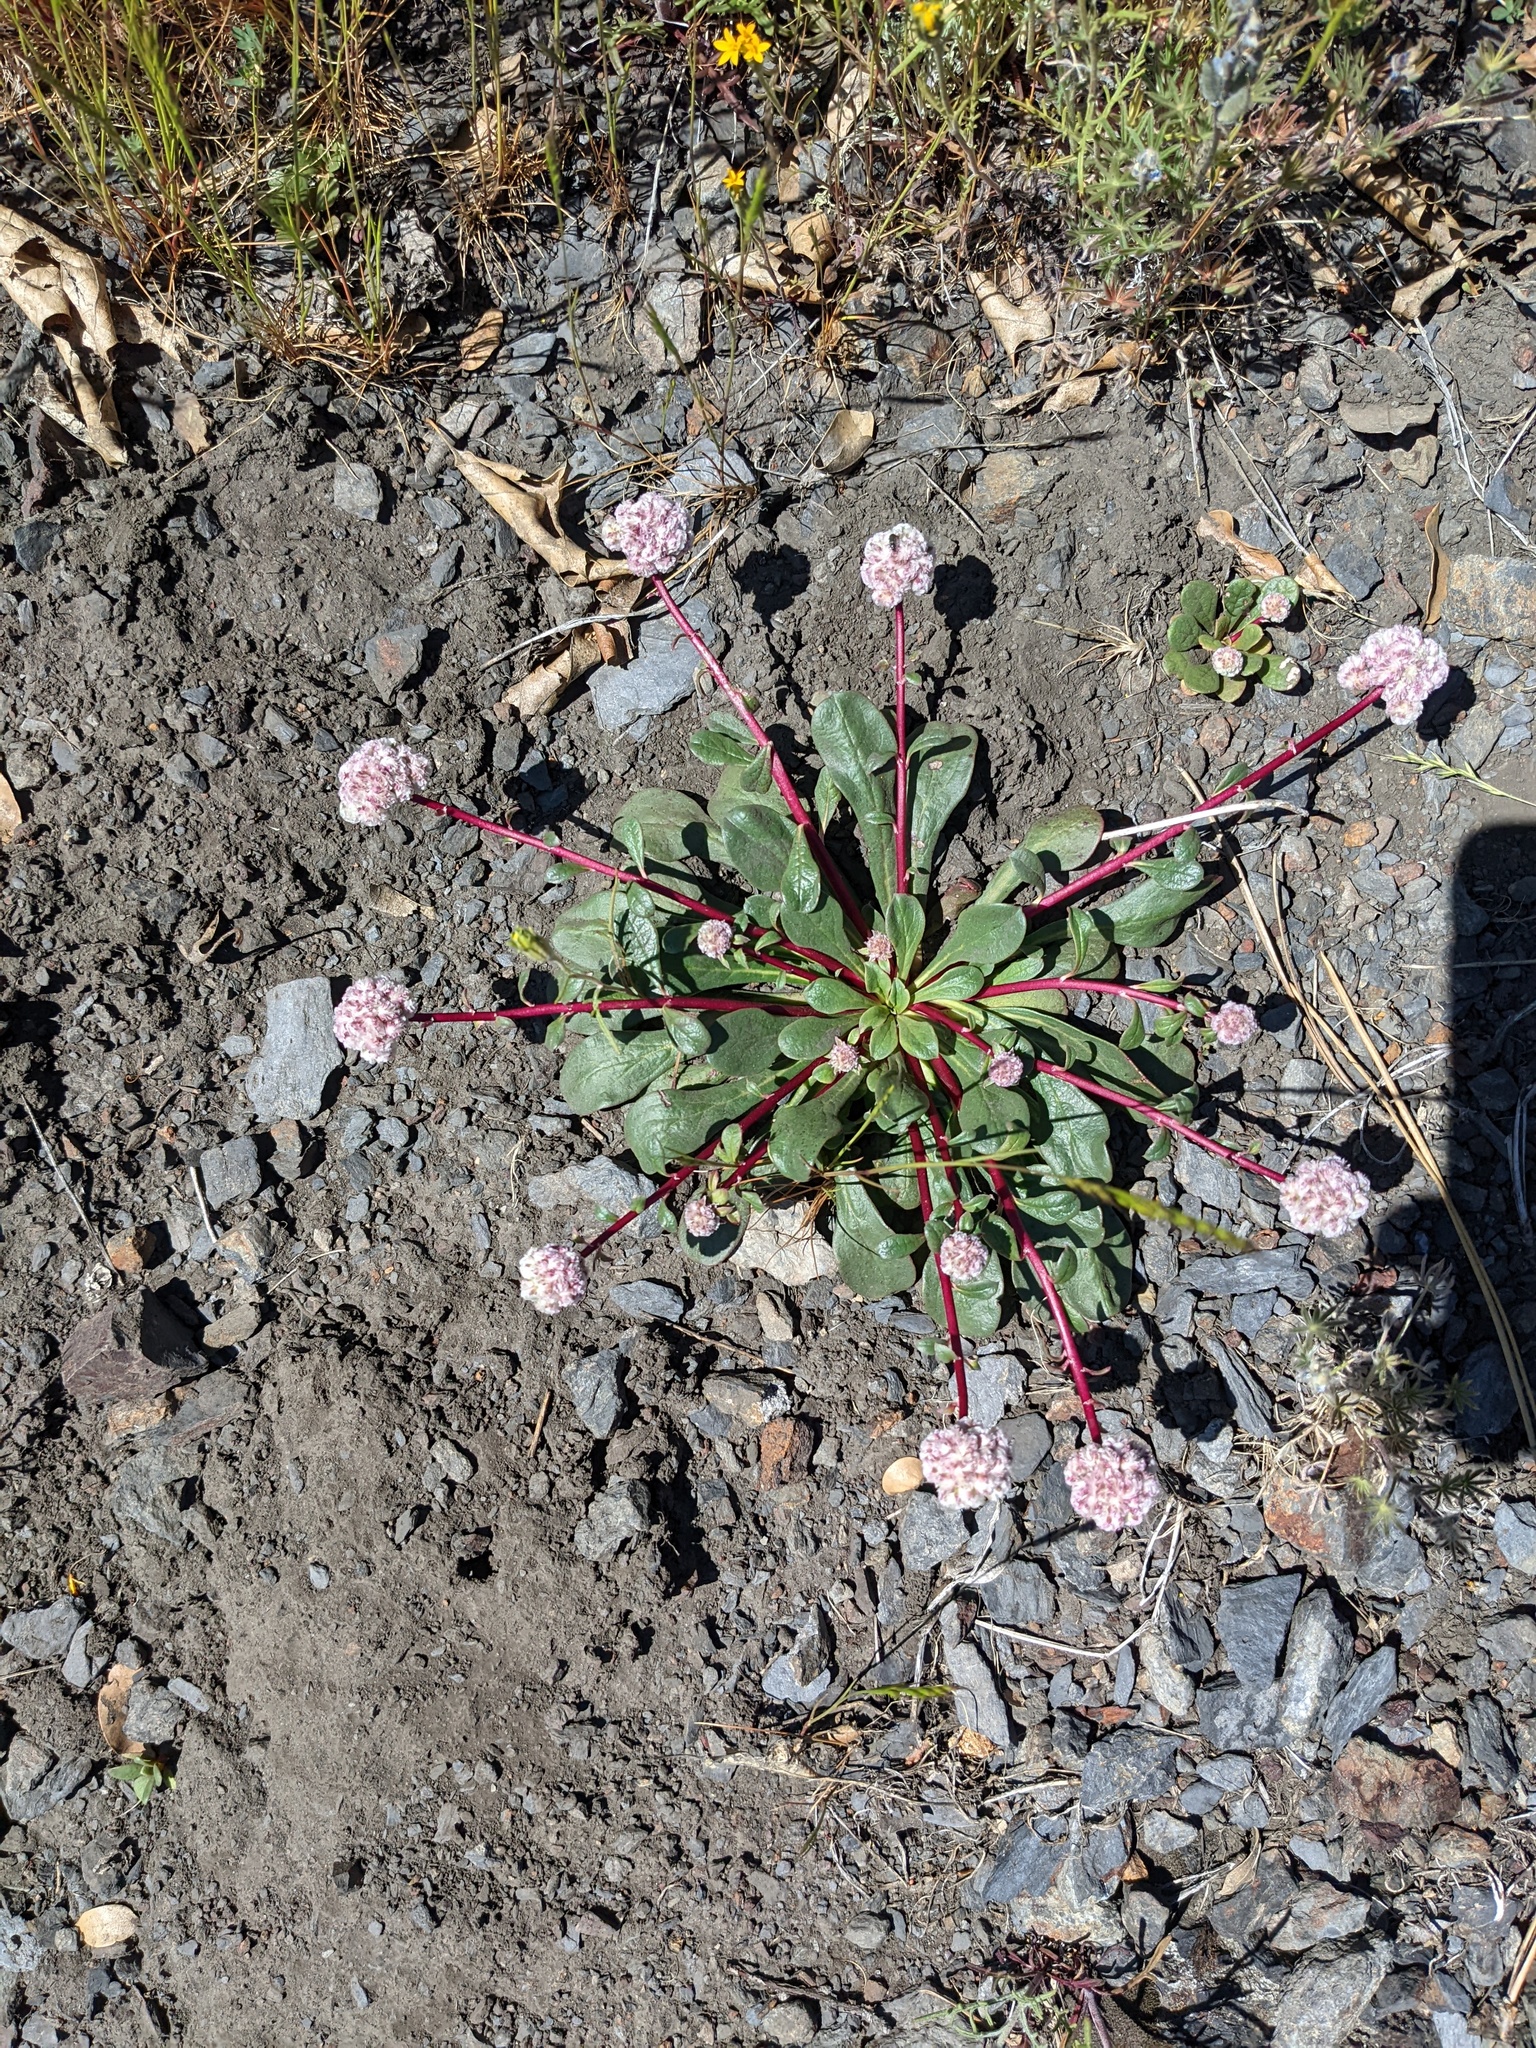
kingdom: Plantae
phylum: Tracheophyta
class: Magnoliopsida
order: Caryophyllales
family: Montiaceae
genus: Calyptridium
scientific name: Calyptridium monospermum
